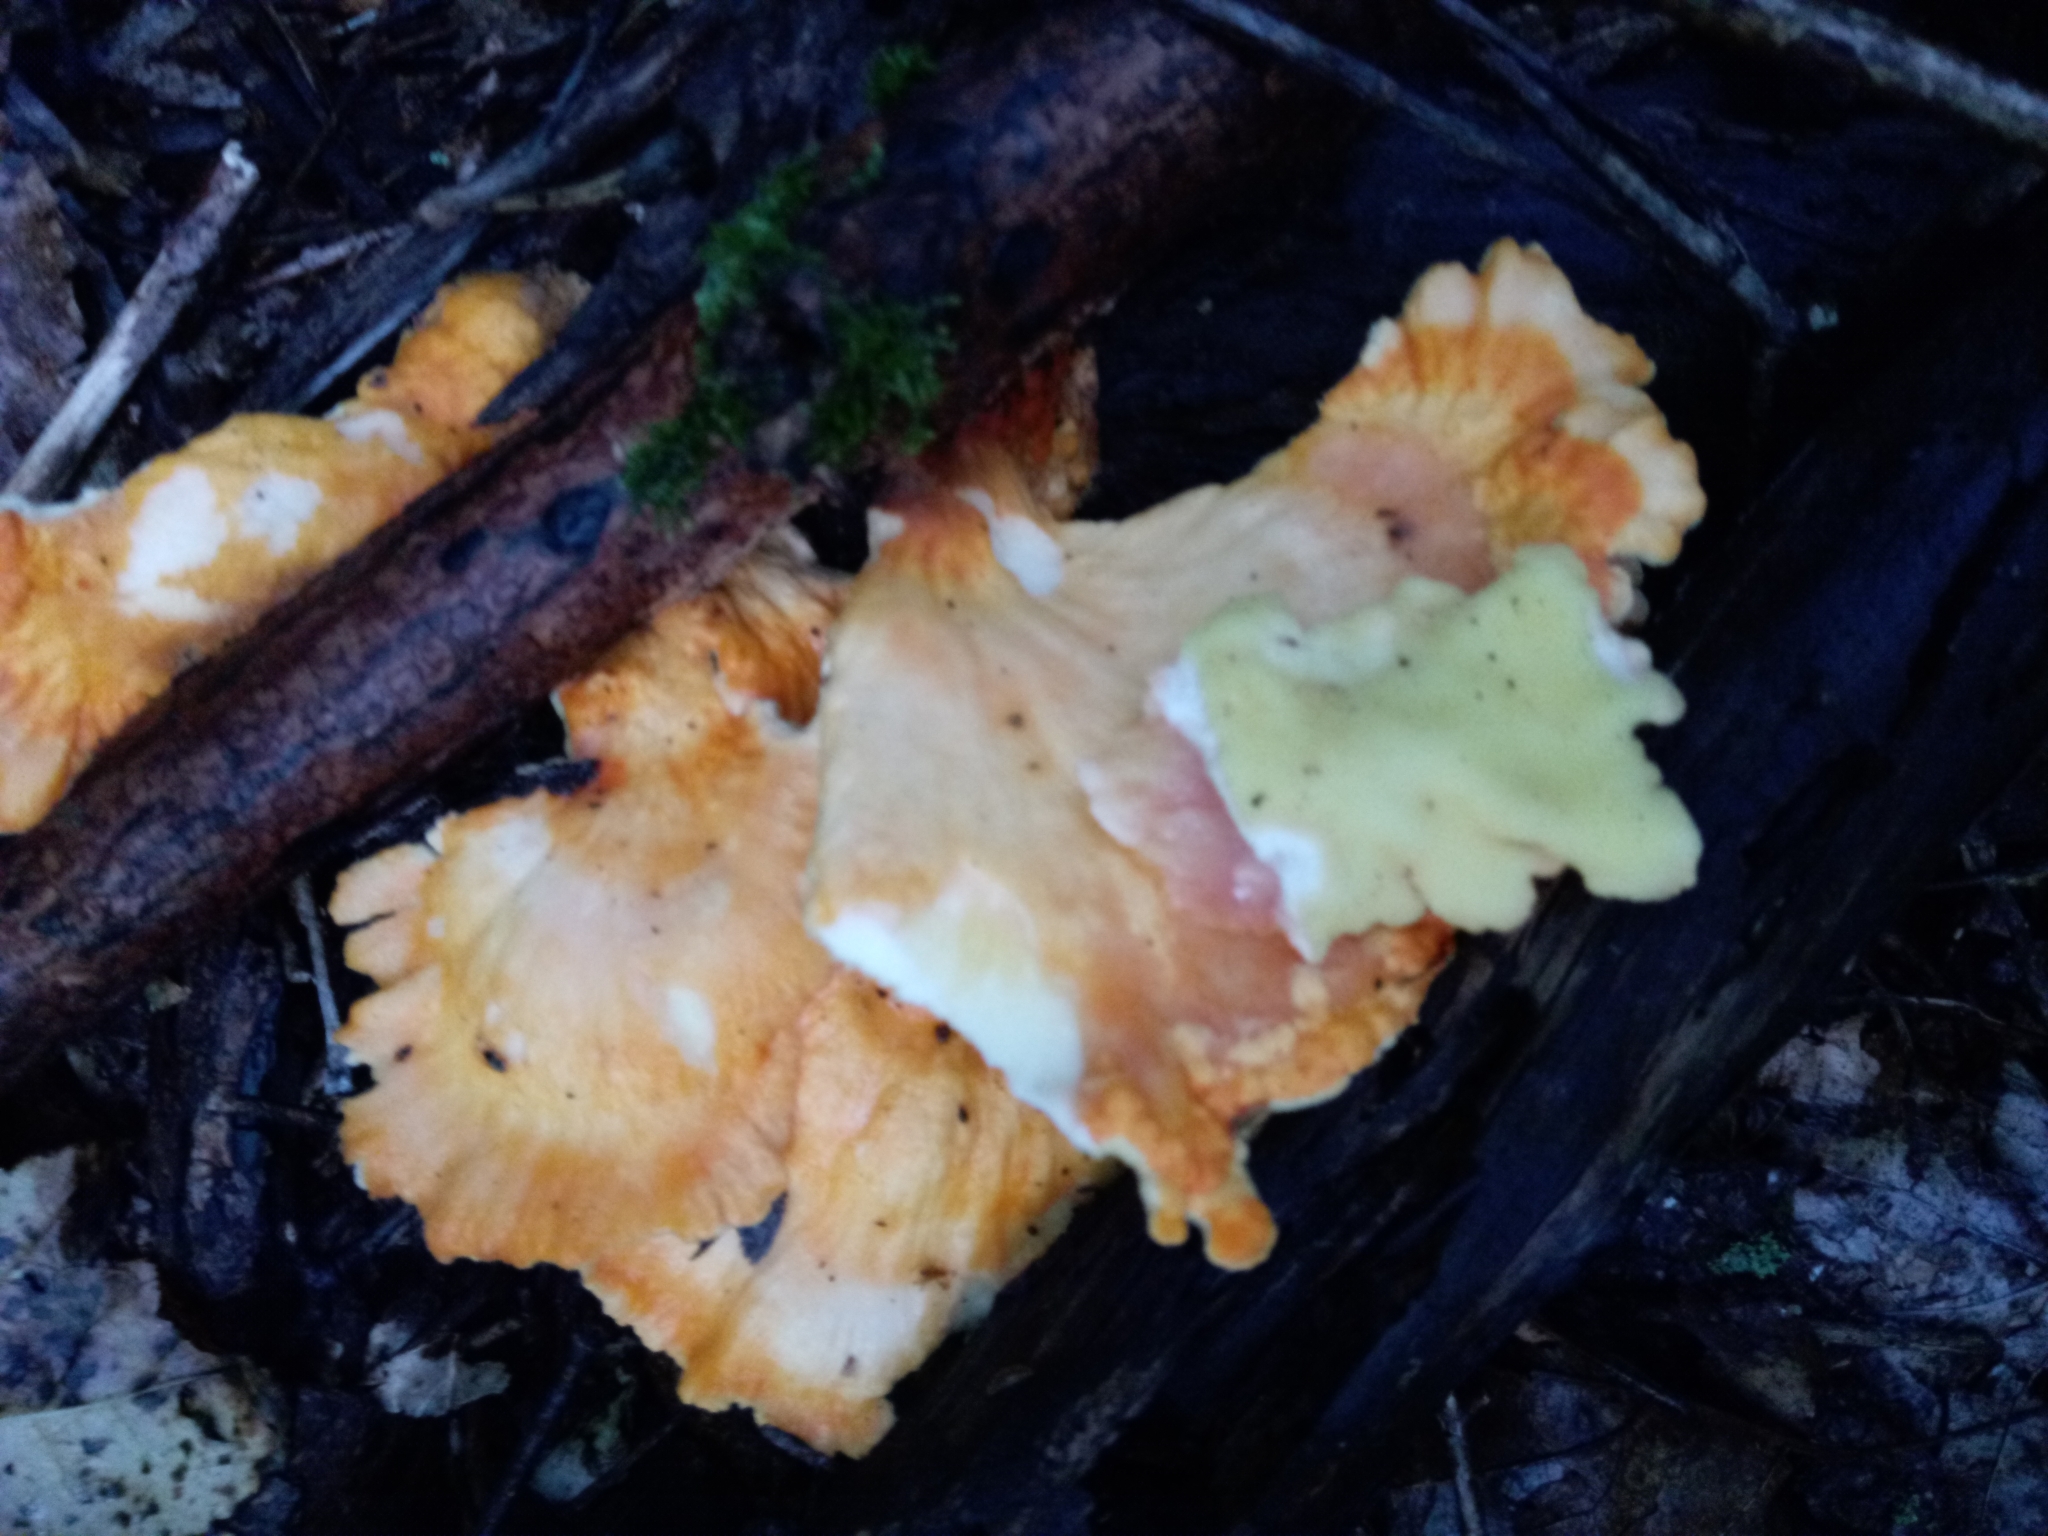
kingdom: Fungi
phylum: Basidiomycota
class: Agaricomycetes
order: Polyporales
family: Laetiporaceae
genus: Laetiporus
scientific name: Laetiporus sulphureus
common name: Chicken of the woods
